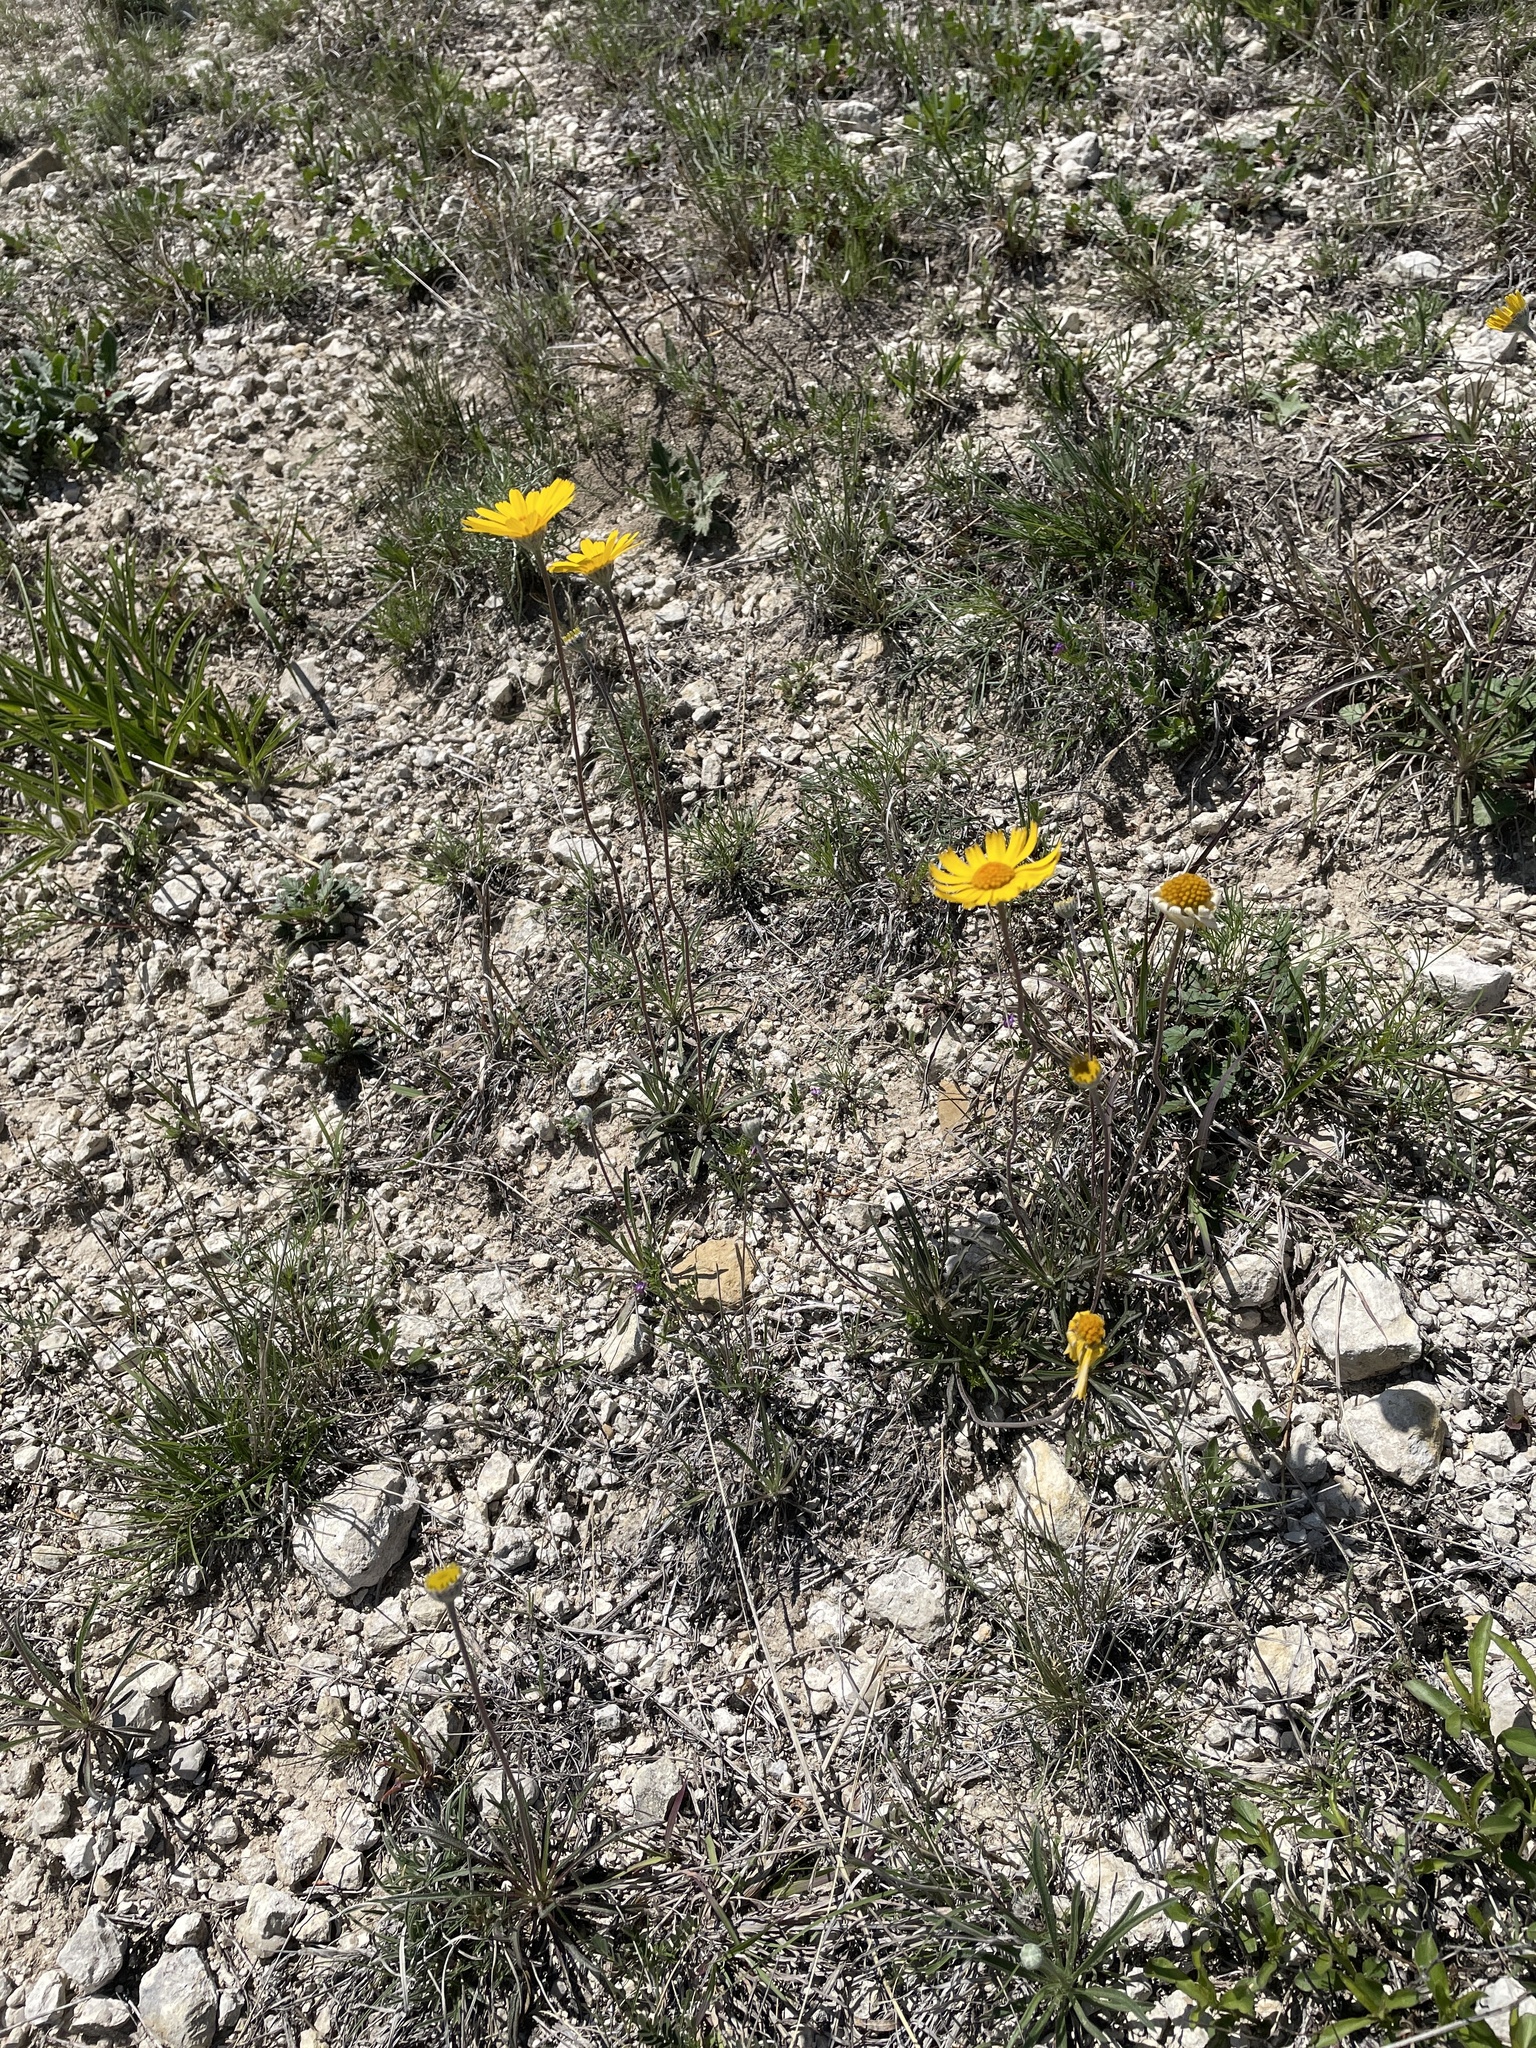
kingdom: Plantae
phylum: Tracheophyta
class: Magnoliopsida
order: Asterales
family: Asteraceae
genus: Tetraneuris
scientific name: Tetraneuris scaposa
